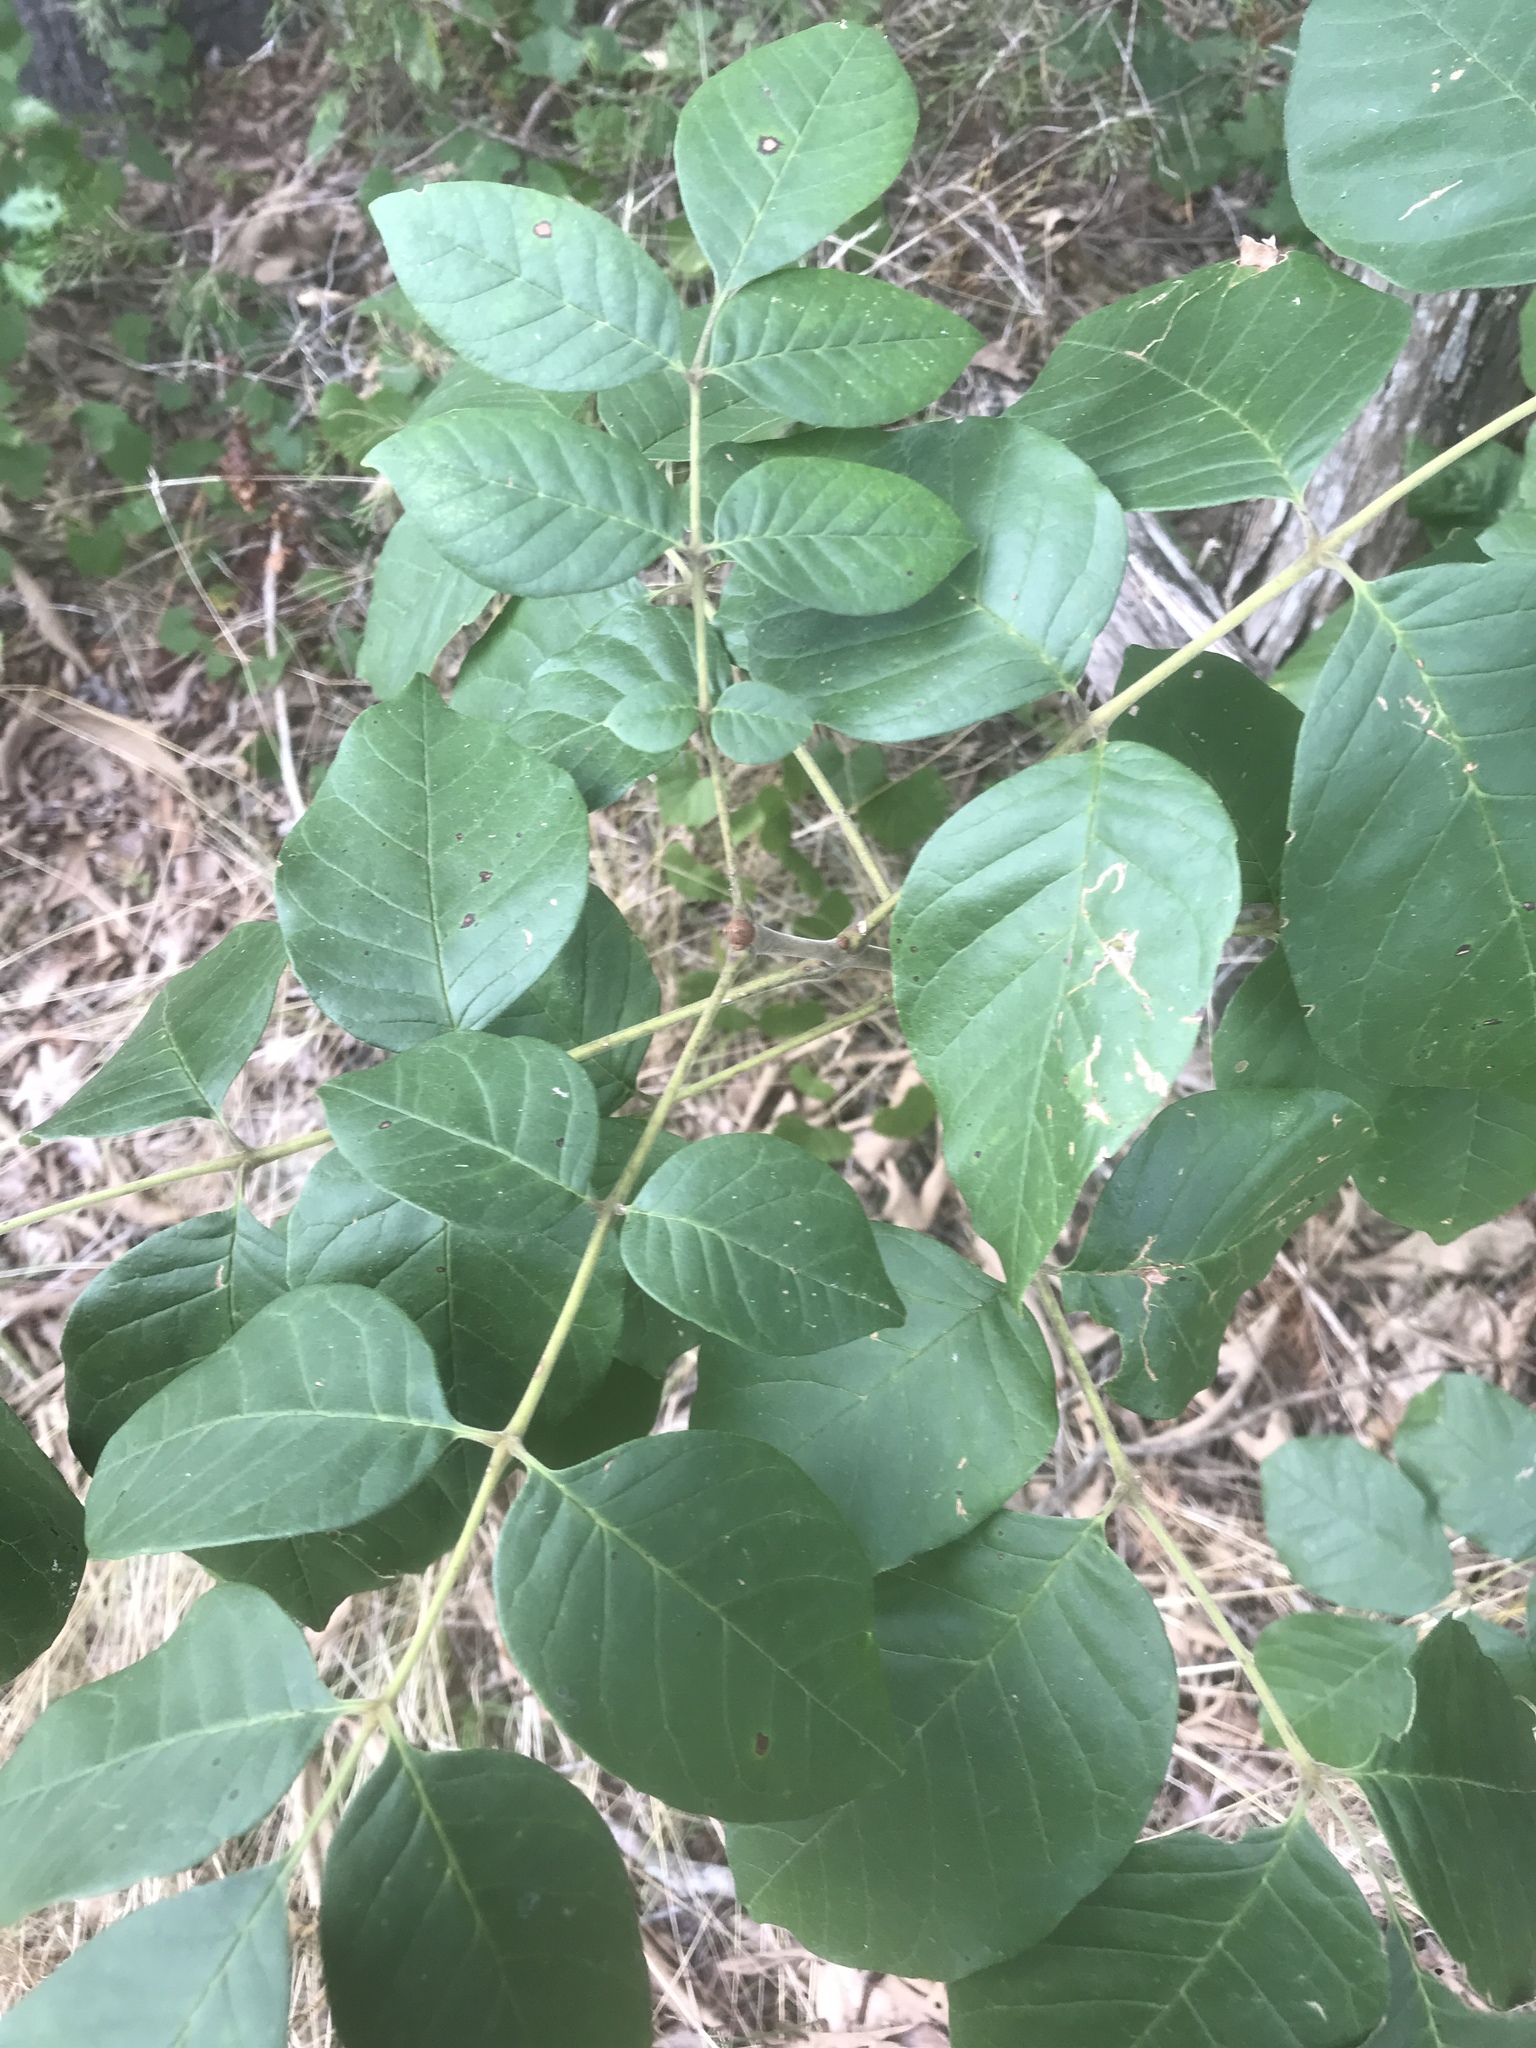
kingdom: Plantae
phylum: Tracheophyta
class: Magnoliopsida
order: Lamiales
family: Oleaceae
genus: Fraxinus
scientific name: Fraxinus americana
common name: White ash
